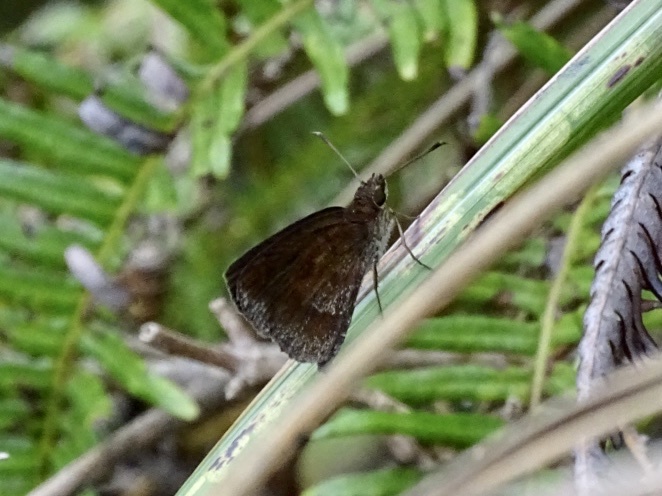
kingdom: Animalia
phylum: Arthropoda
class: Insecta
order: Lepidoptera
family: Hesperiidae
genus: Astictopterus
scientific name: Astictopterus jama
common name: Forest hopper
